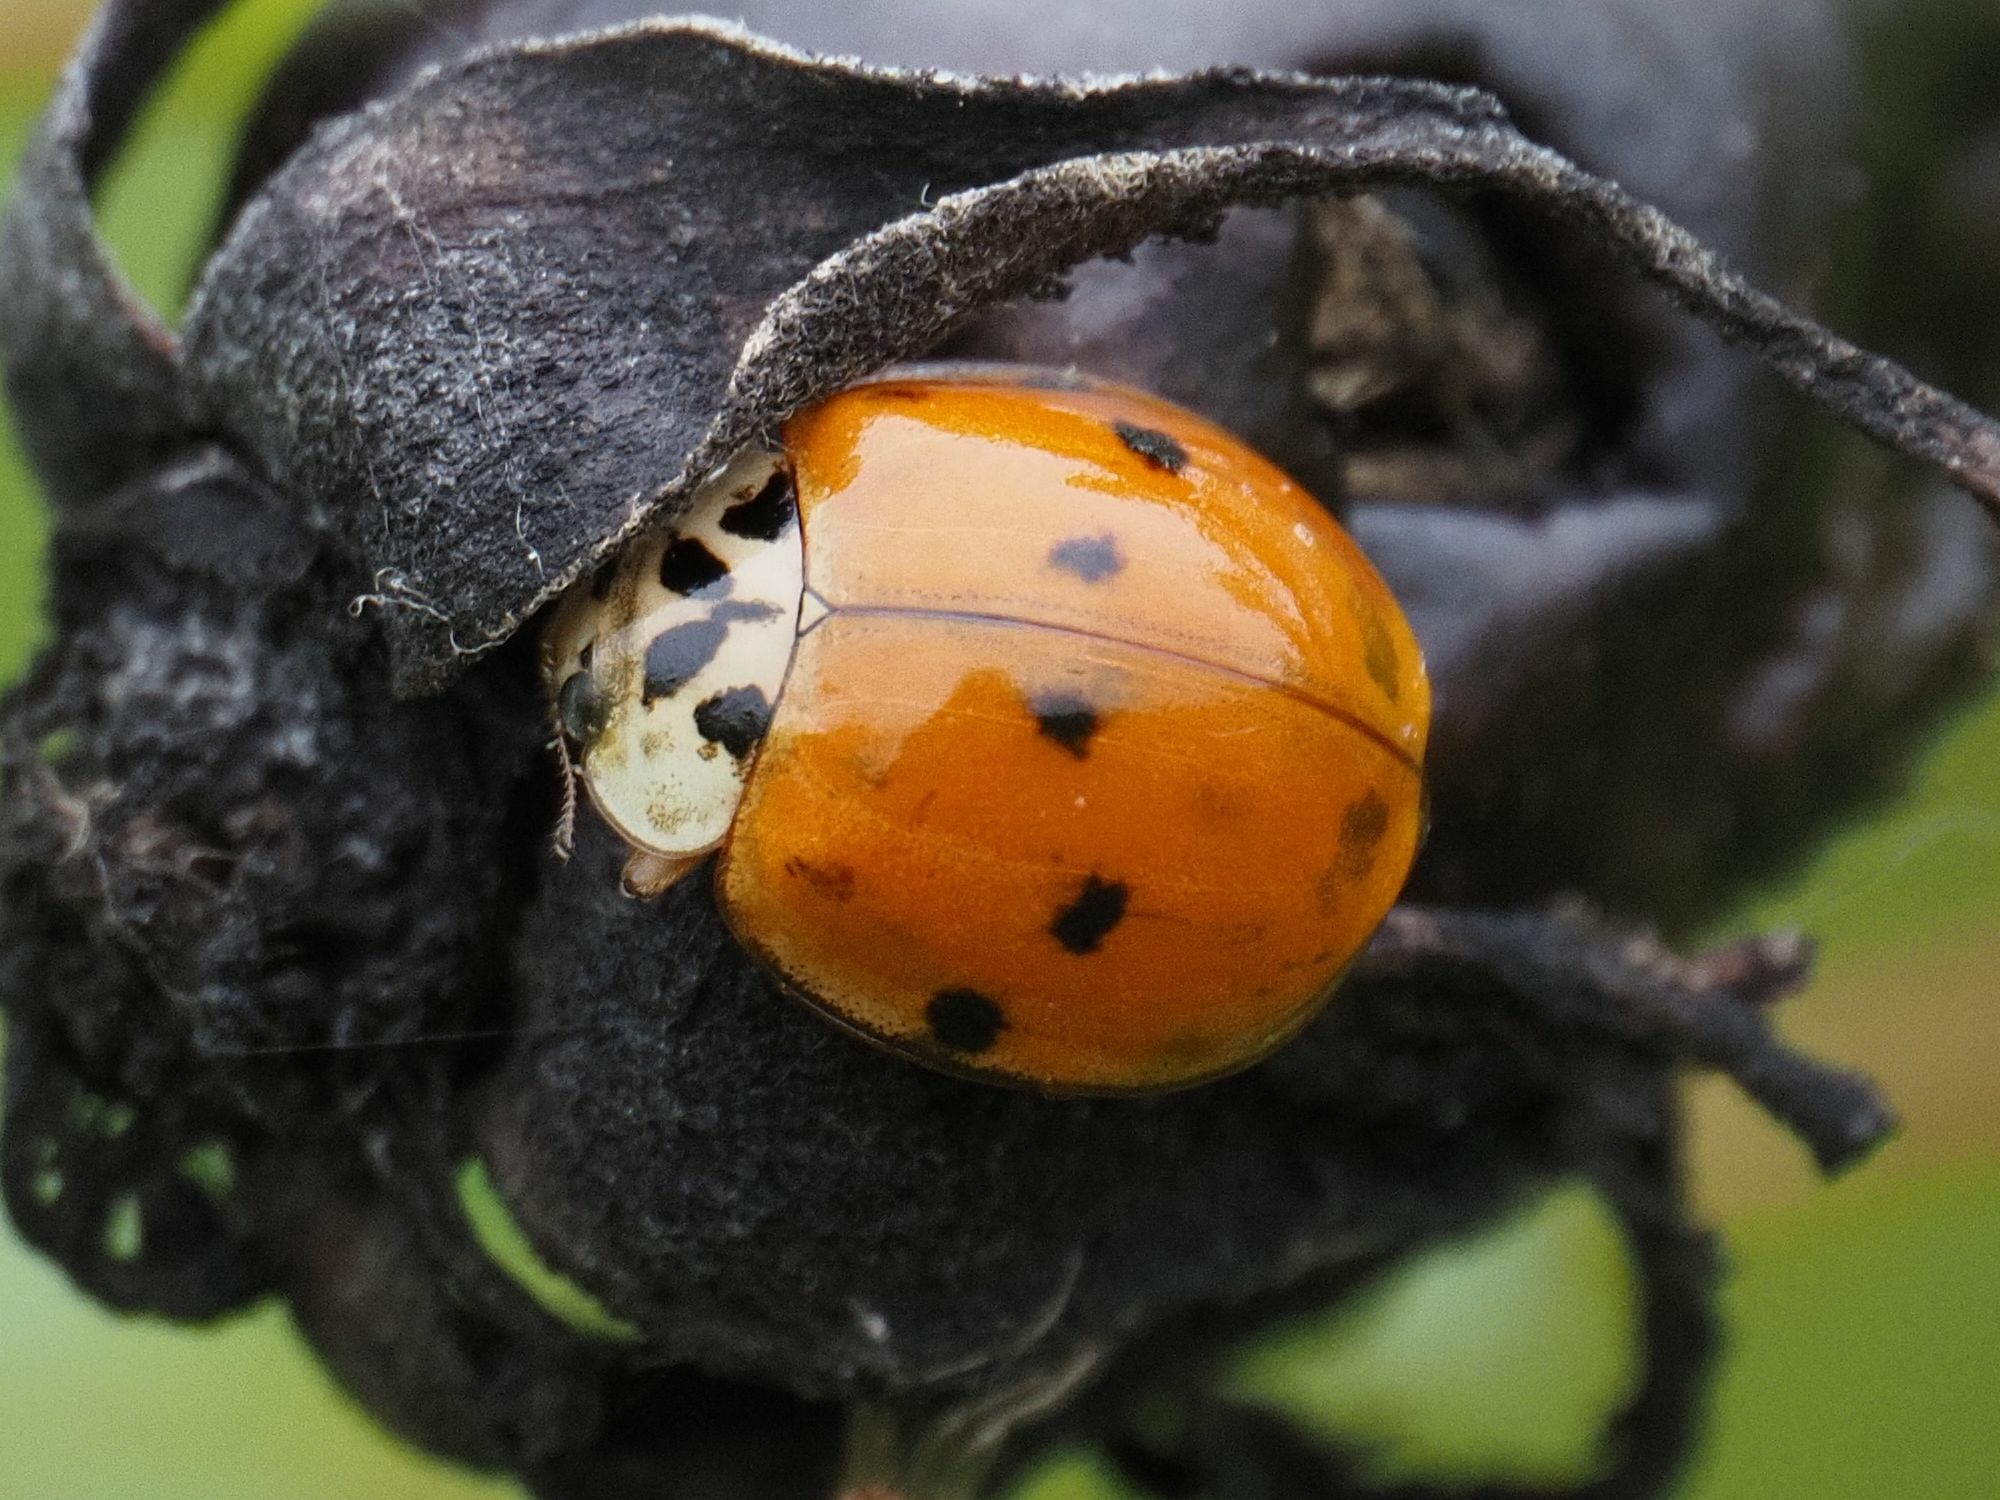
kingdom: Animalia
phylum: Arthropoda
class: Insecta
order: Coleoptera
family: Coccinellidae
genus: Harmonia
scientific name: Harmonia axyridis
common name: Harlequin ladybird
